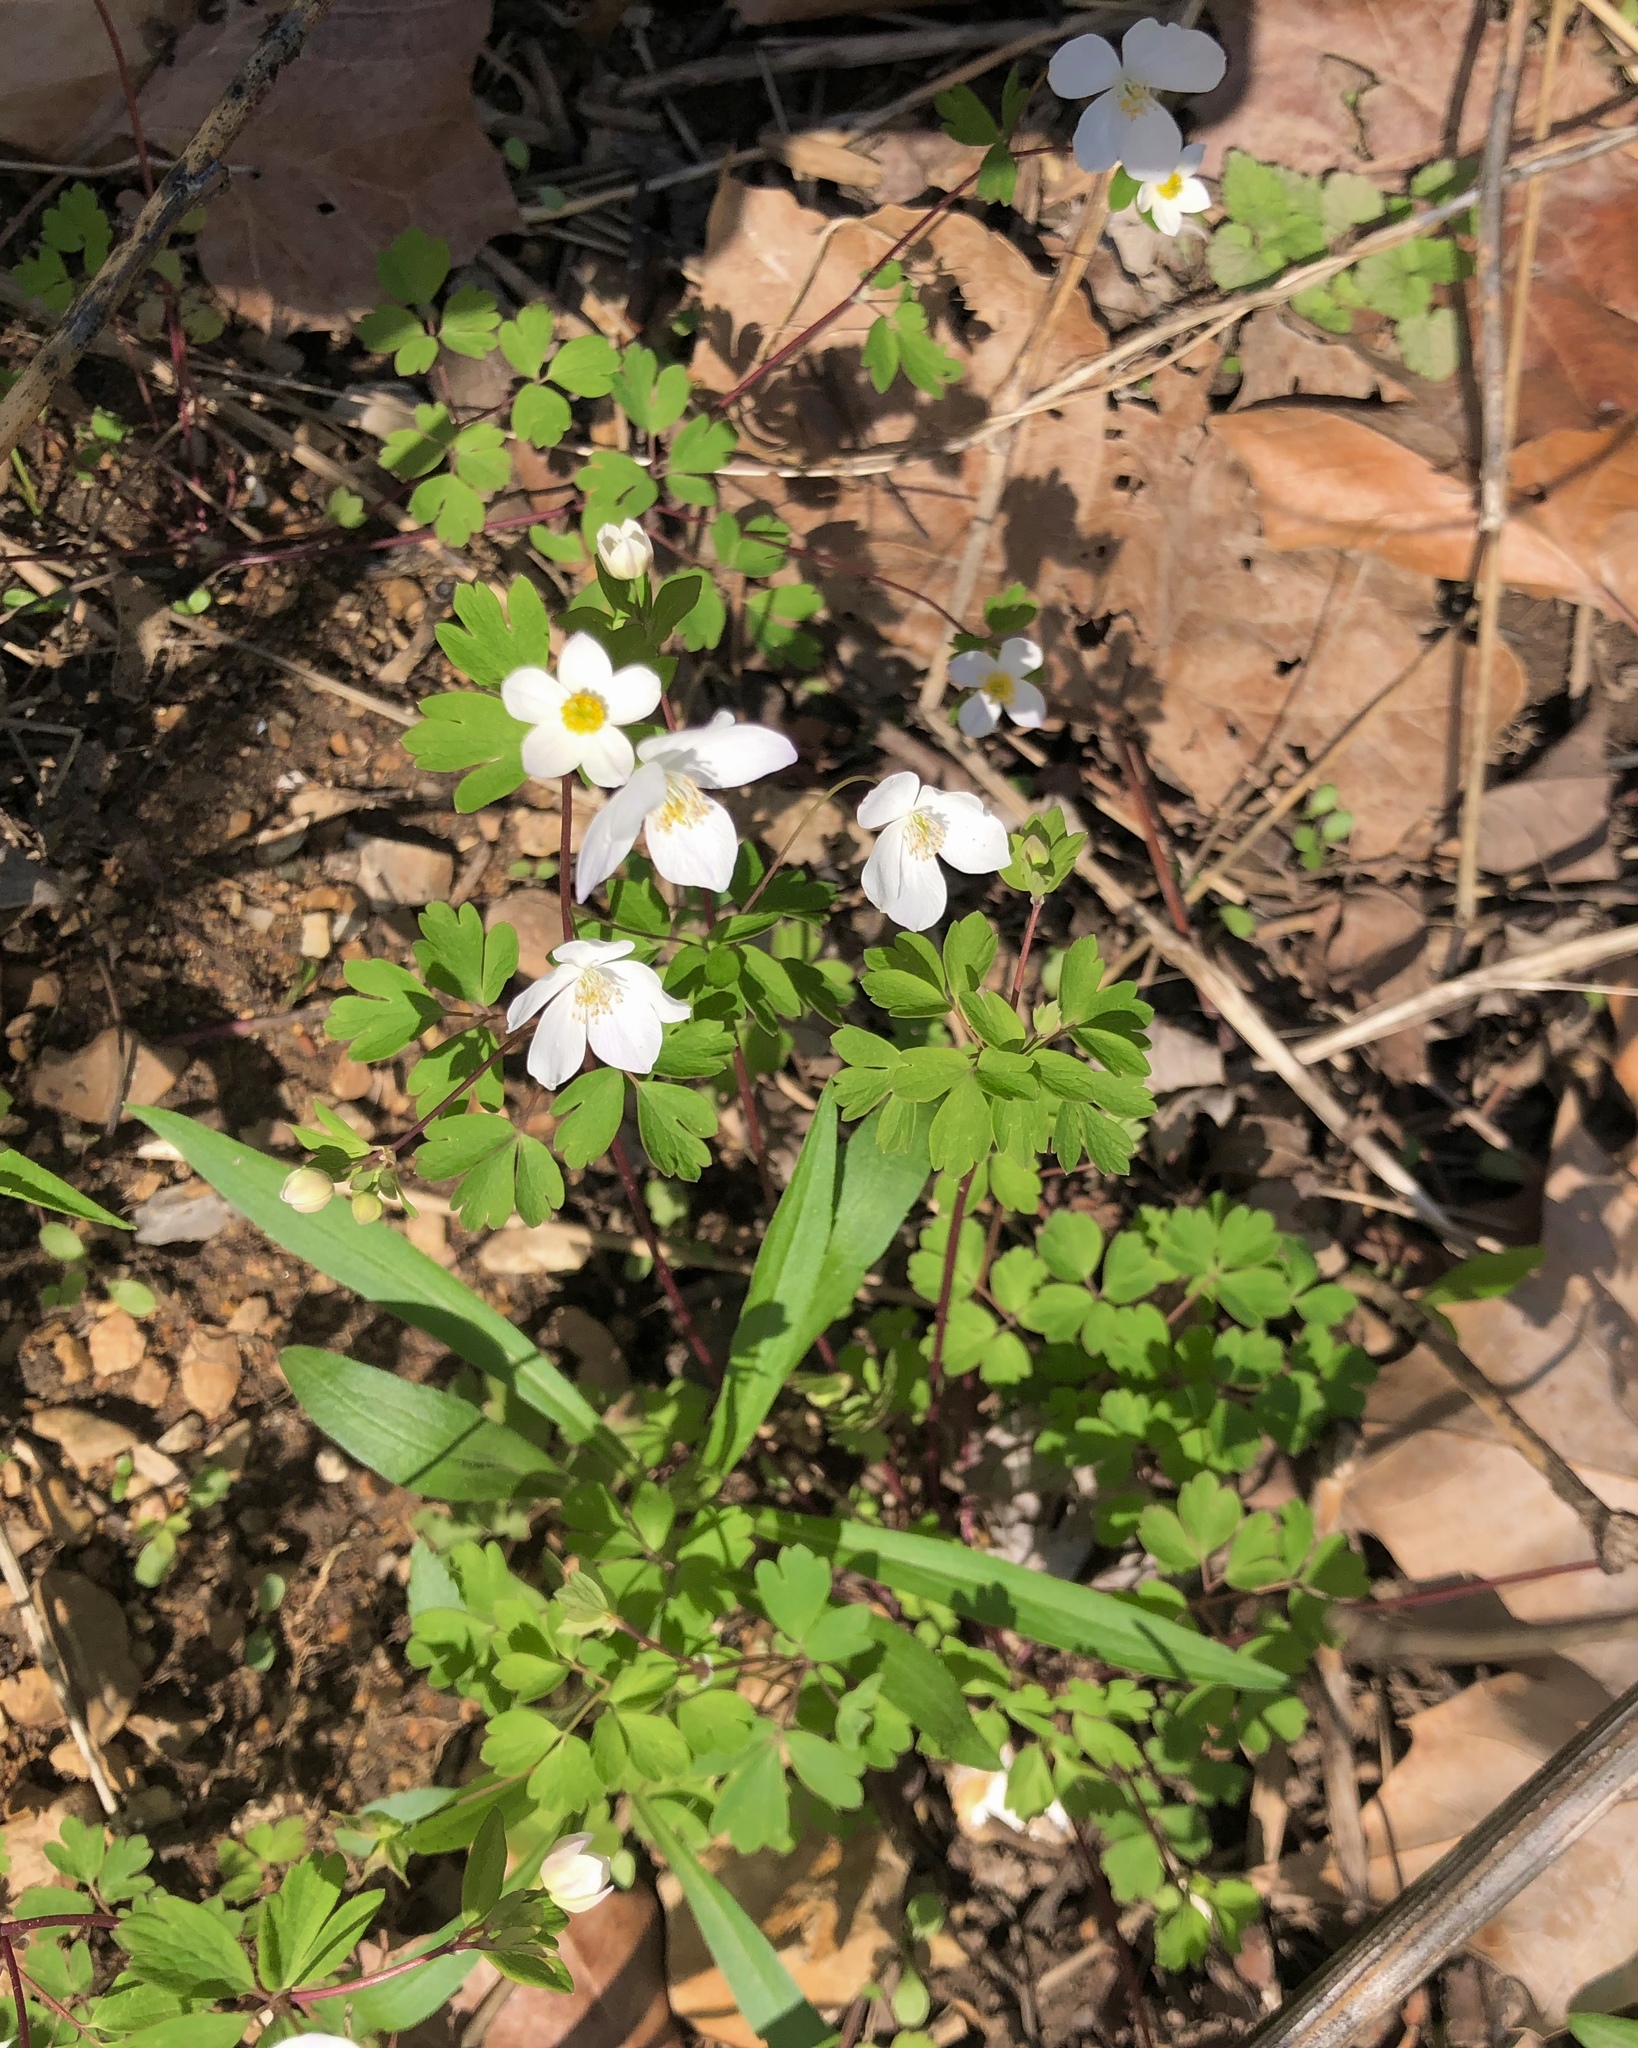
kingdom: Plantae
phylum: Tracheophyta
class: Magnoliopsida
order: Ranunculales
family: Ranunculaceae
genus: Enemion
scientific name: Enemion biternatum
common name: Eastern false rue-anemone
